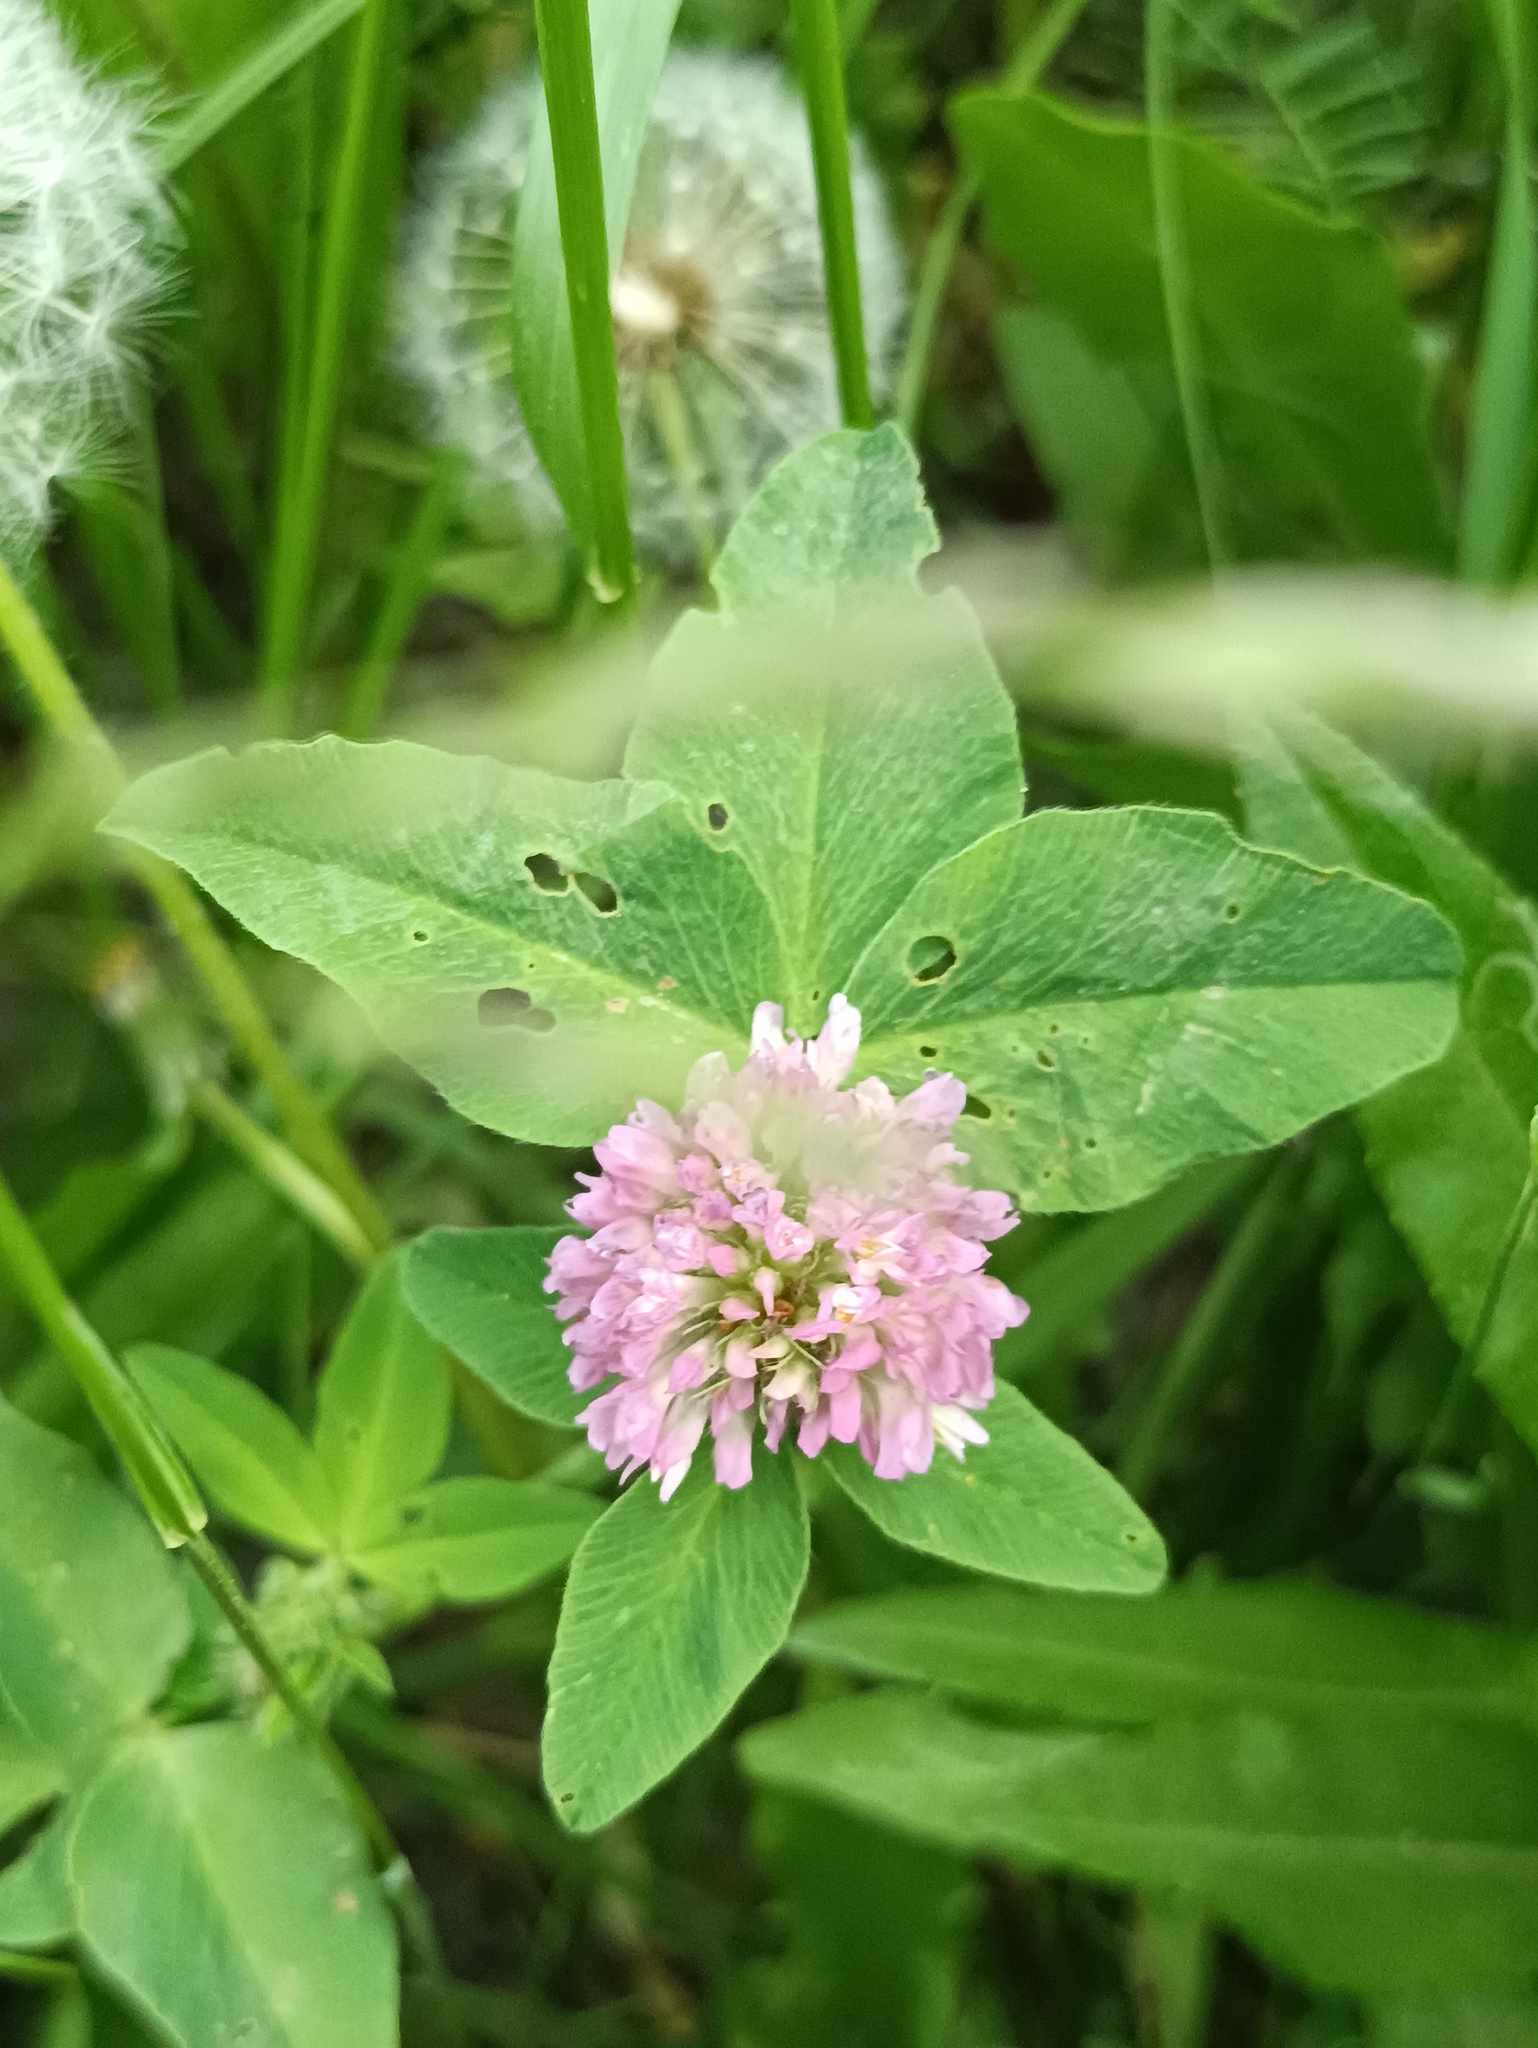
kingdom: Plantae
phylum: Tracheophyta
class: Magnoliopsida
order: Fabales
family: Fabaceae
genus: Trifolium
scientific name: Trifolium pratense
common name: Red clover
